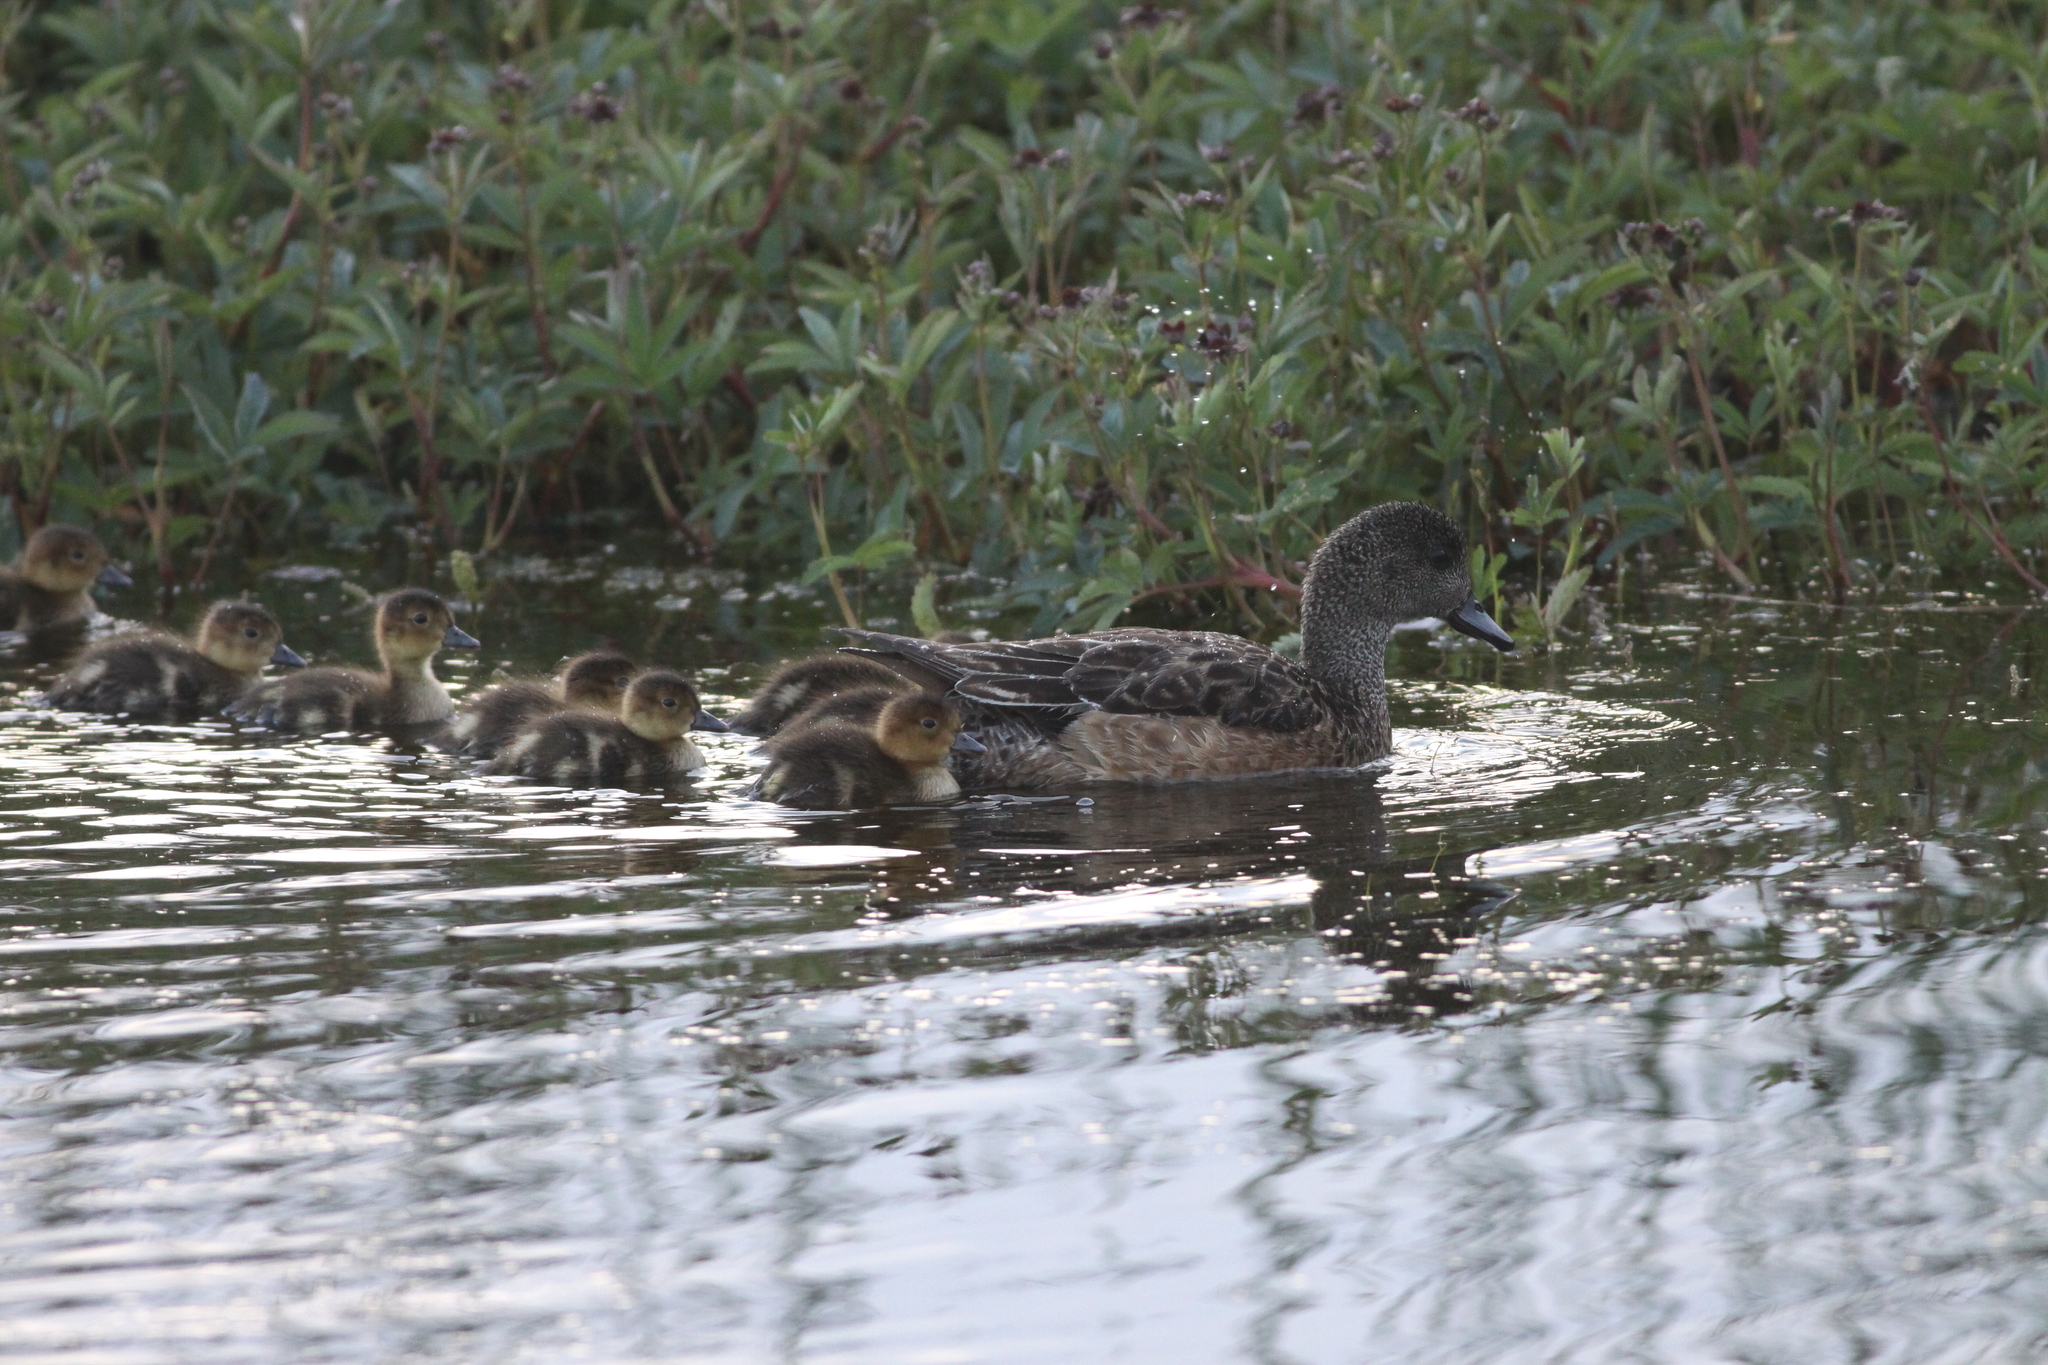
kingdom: Animalia
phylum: Chordata
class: Aves
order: Anseriformes
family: Anatidae
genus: Mareca
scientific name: Mareca americana
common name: American wigeon
